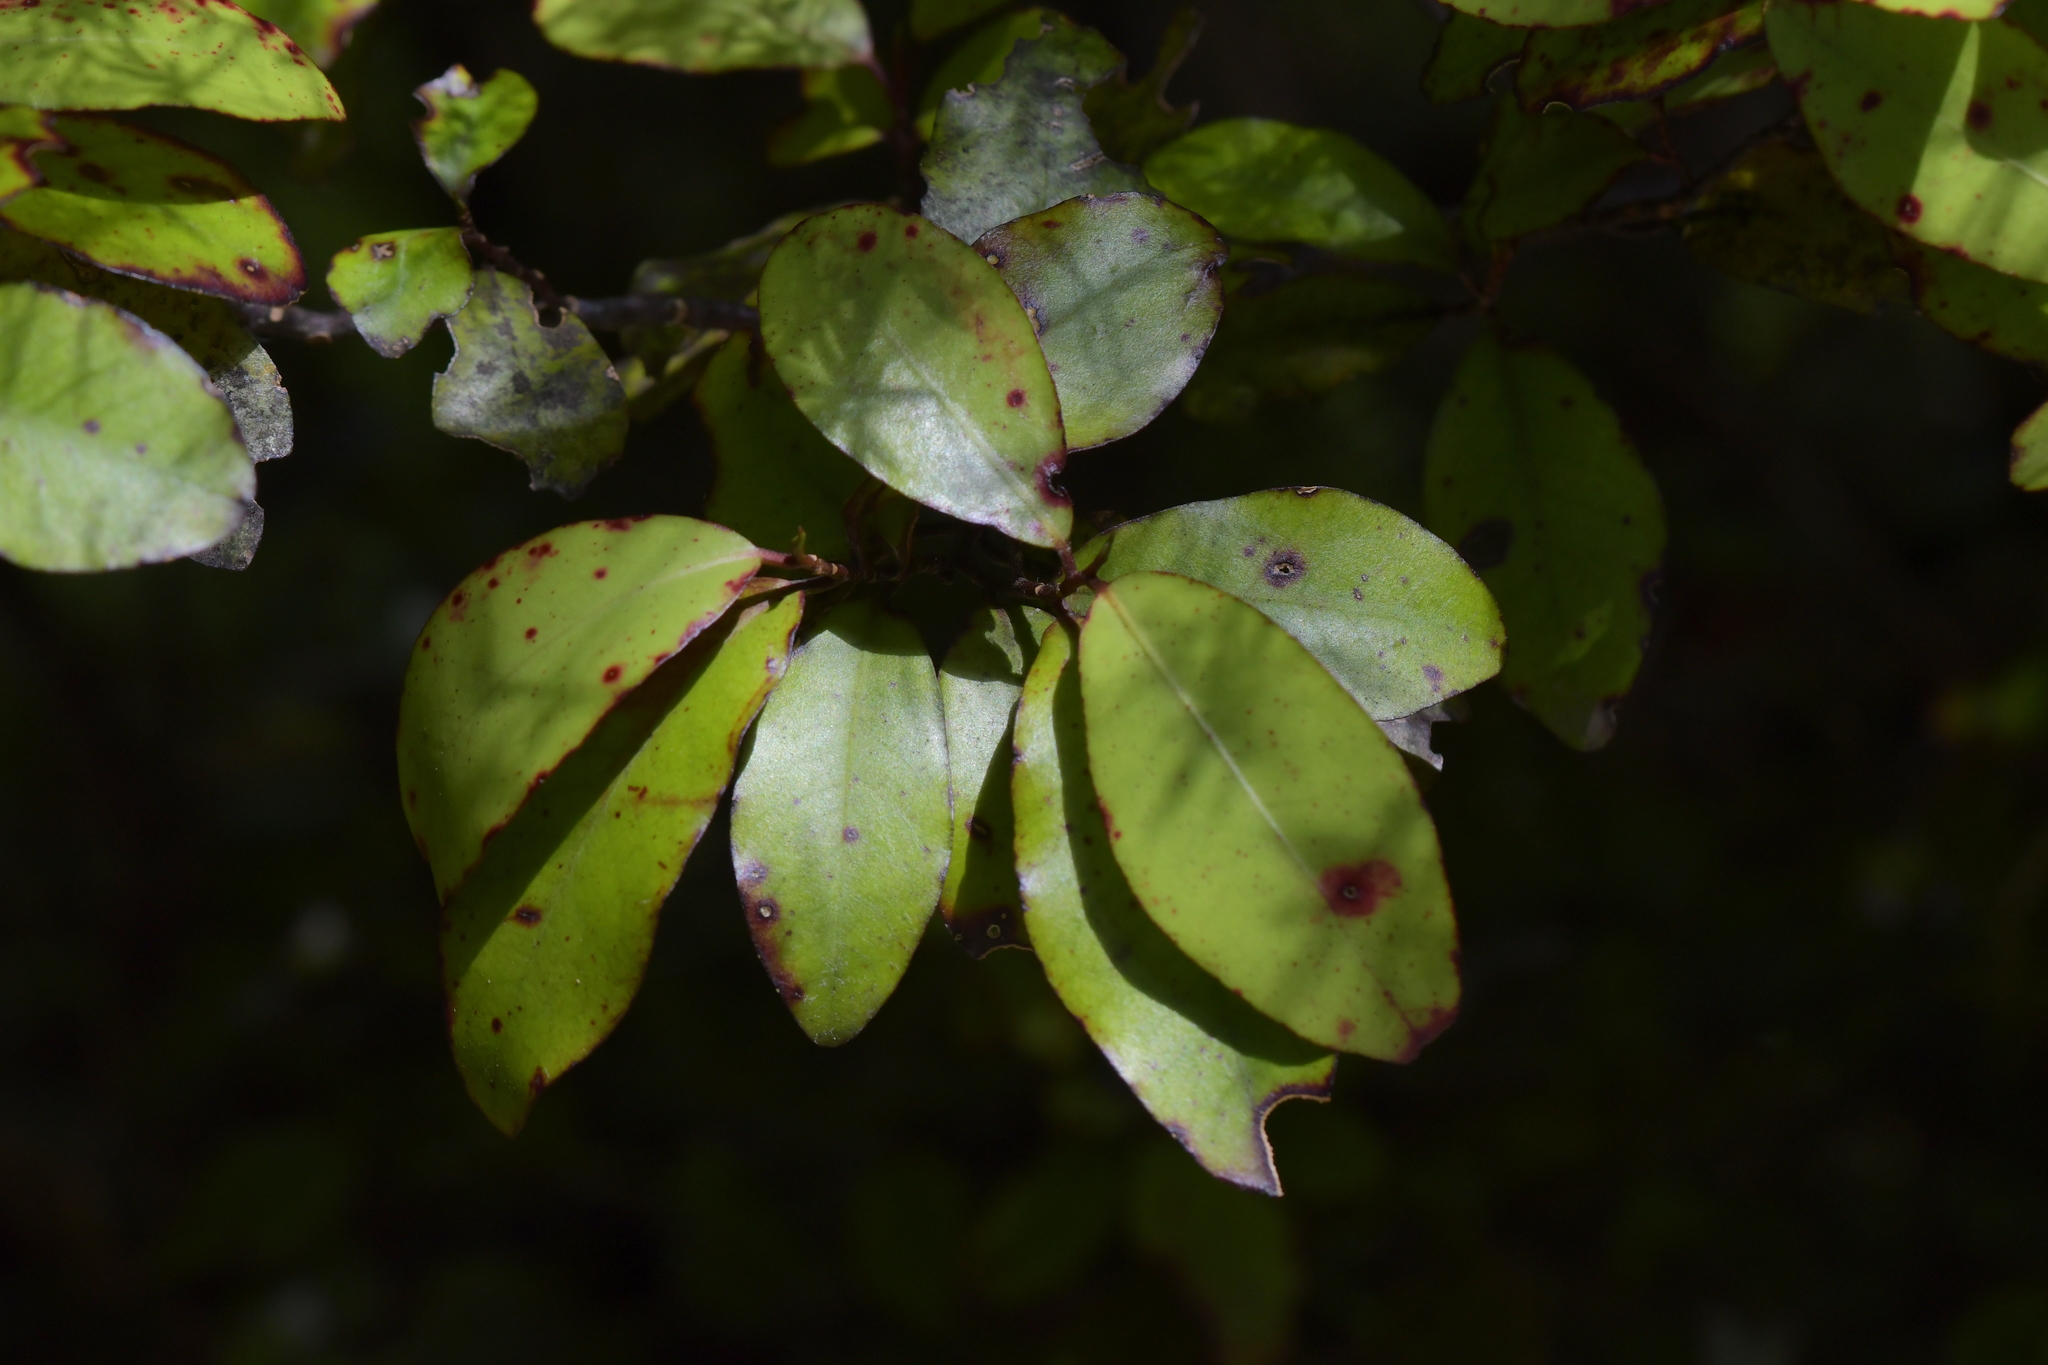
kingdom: Plantae
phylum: Tracheophyta
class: Magnoliopsida
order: Canellales
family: Winteraceae
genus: Pseudowintera
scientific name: Pseudowintera colorata
